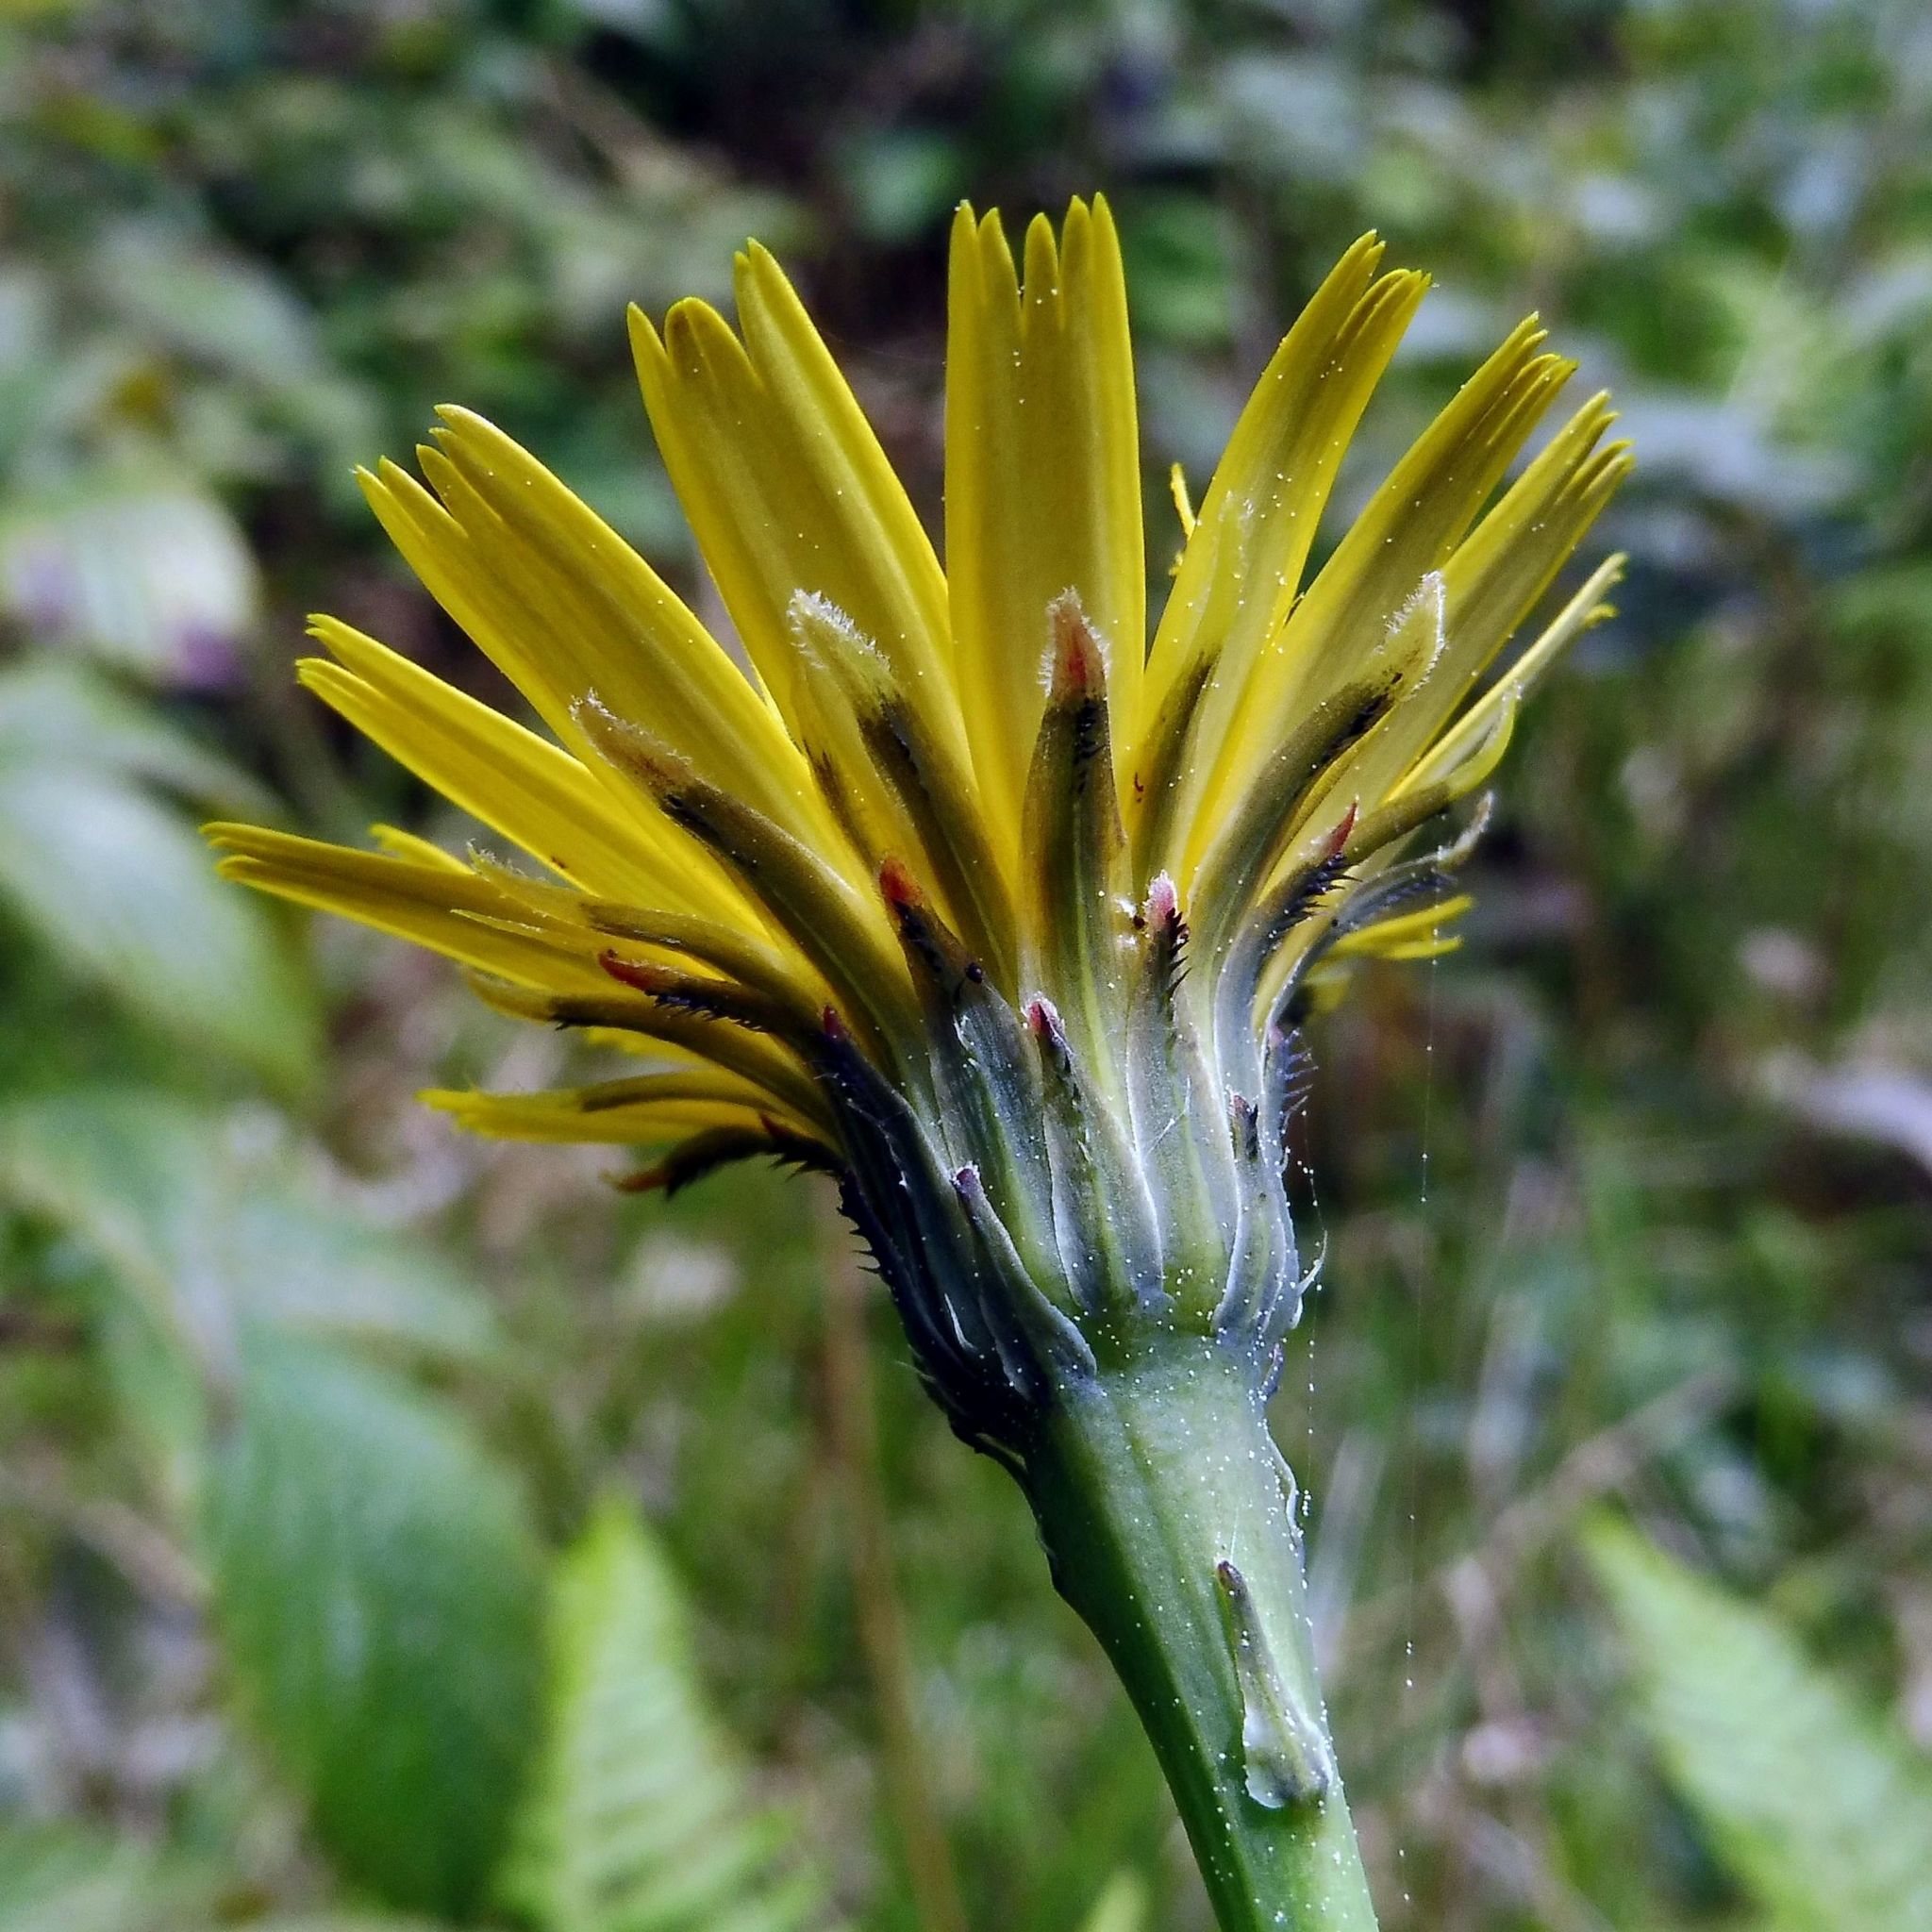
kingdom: Plantae
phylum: Tracheophyta
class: Magnoliopsida
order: Asterales
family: Asteraceae
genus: Hypochaeris
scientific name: Hypochaeris radicata
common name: Flatweed
